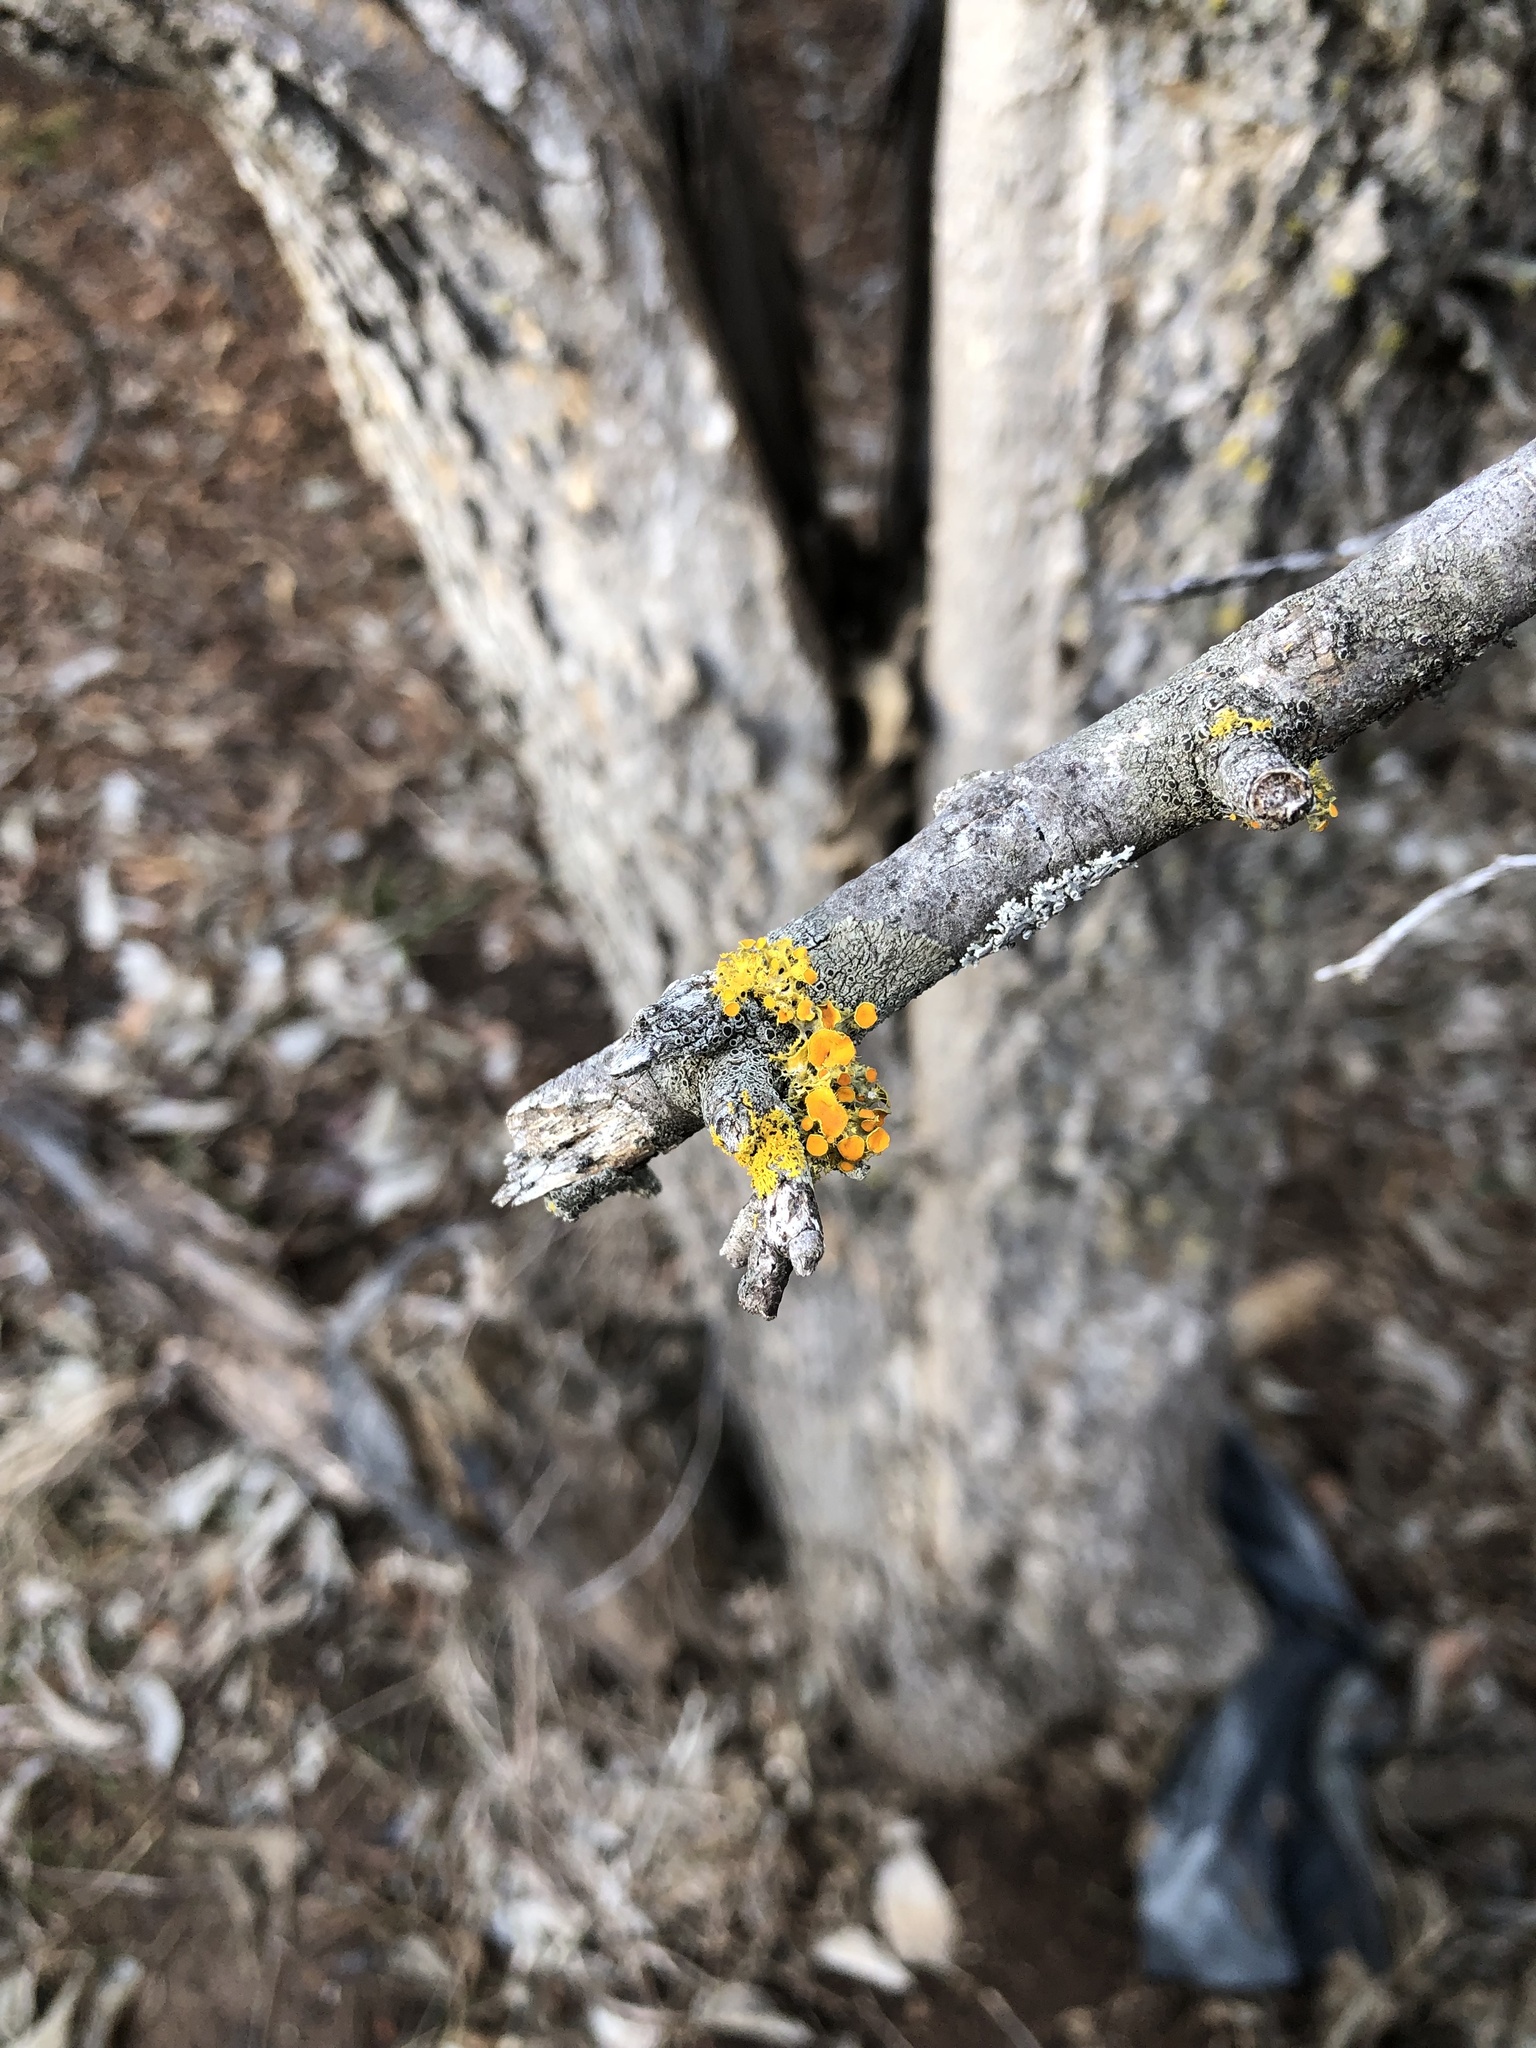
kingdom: Fungi
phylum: Ascomycota
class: Lecanoromycetes
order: Teloschistales
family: Teloschistaceae
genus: Niorma
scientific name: Niorma chrysophthalma
